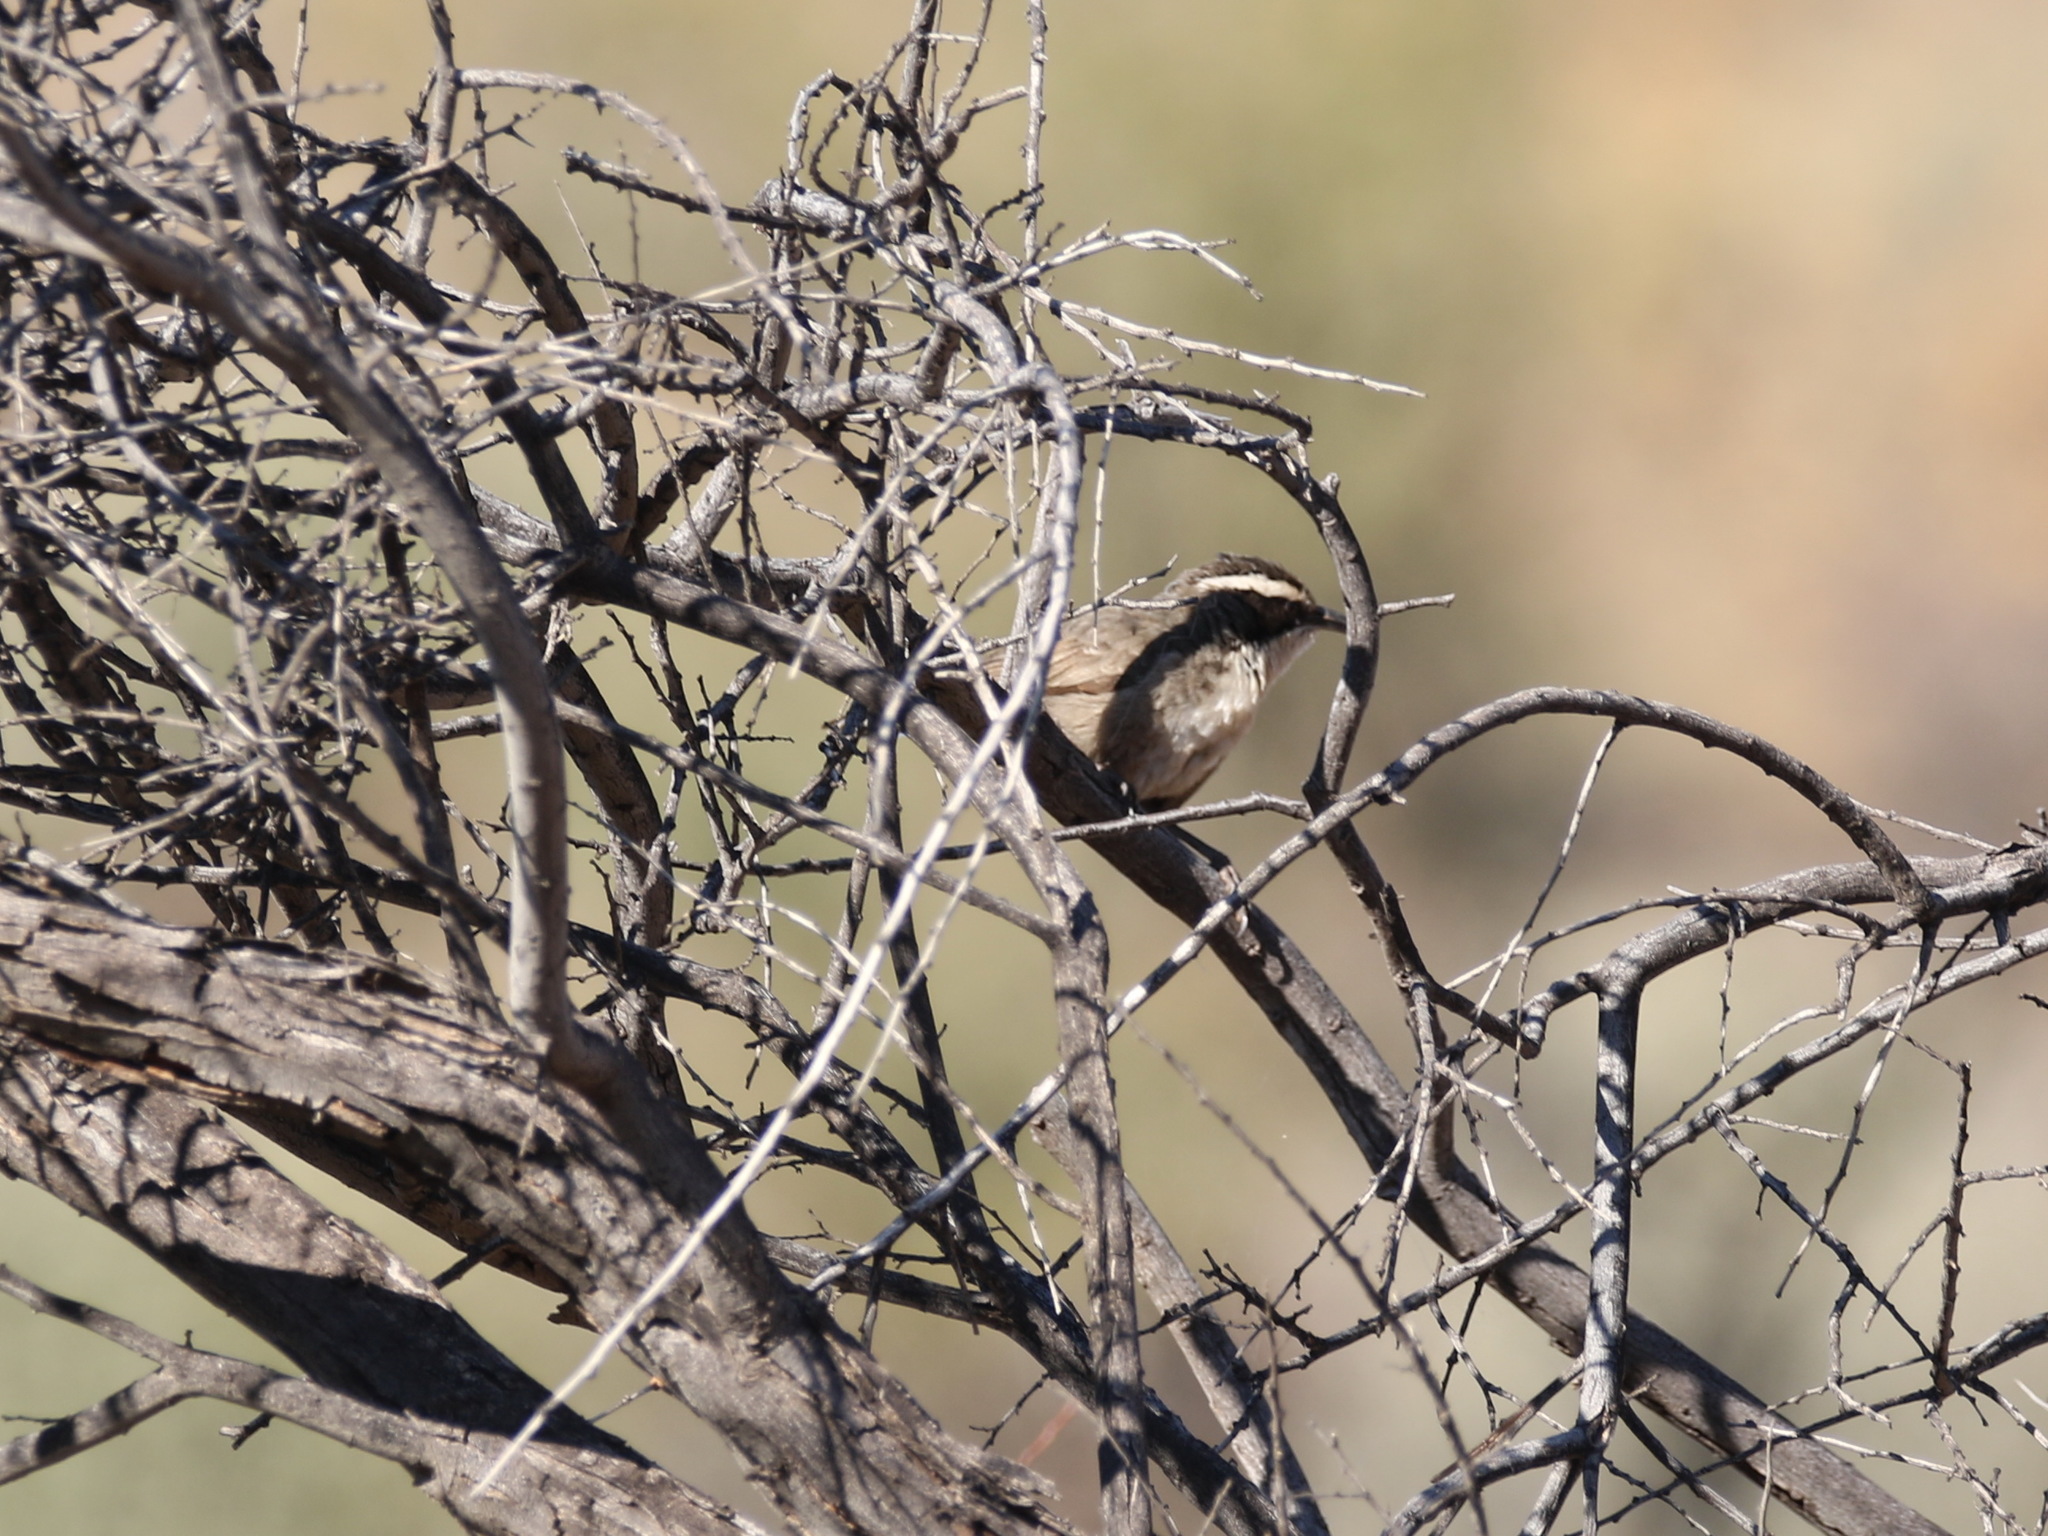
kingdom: Animalia
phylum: Chordata
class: Aves
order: Passeriformes
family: Pomatostomidae
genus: Pomatostomus
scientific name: Pomatostomus superciliosus
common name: White-browed babbler
